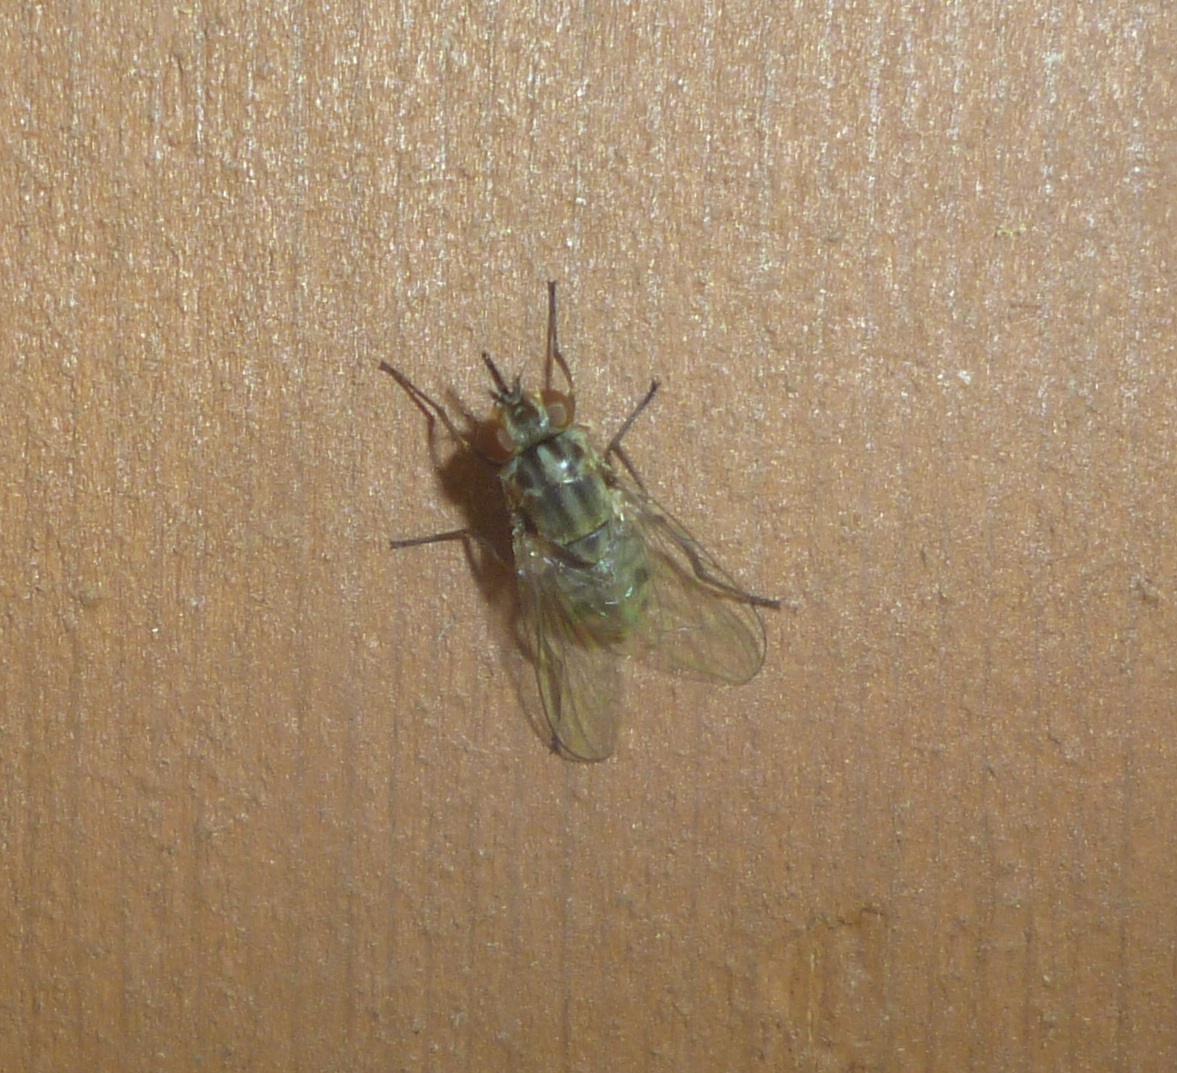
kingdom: Animalia
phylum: Arthropoda
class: Insecta
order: Diptera
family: Muscidae
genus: Stomoxys
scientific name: Stomoxys calcitrans
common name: Stable fly
